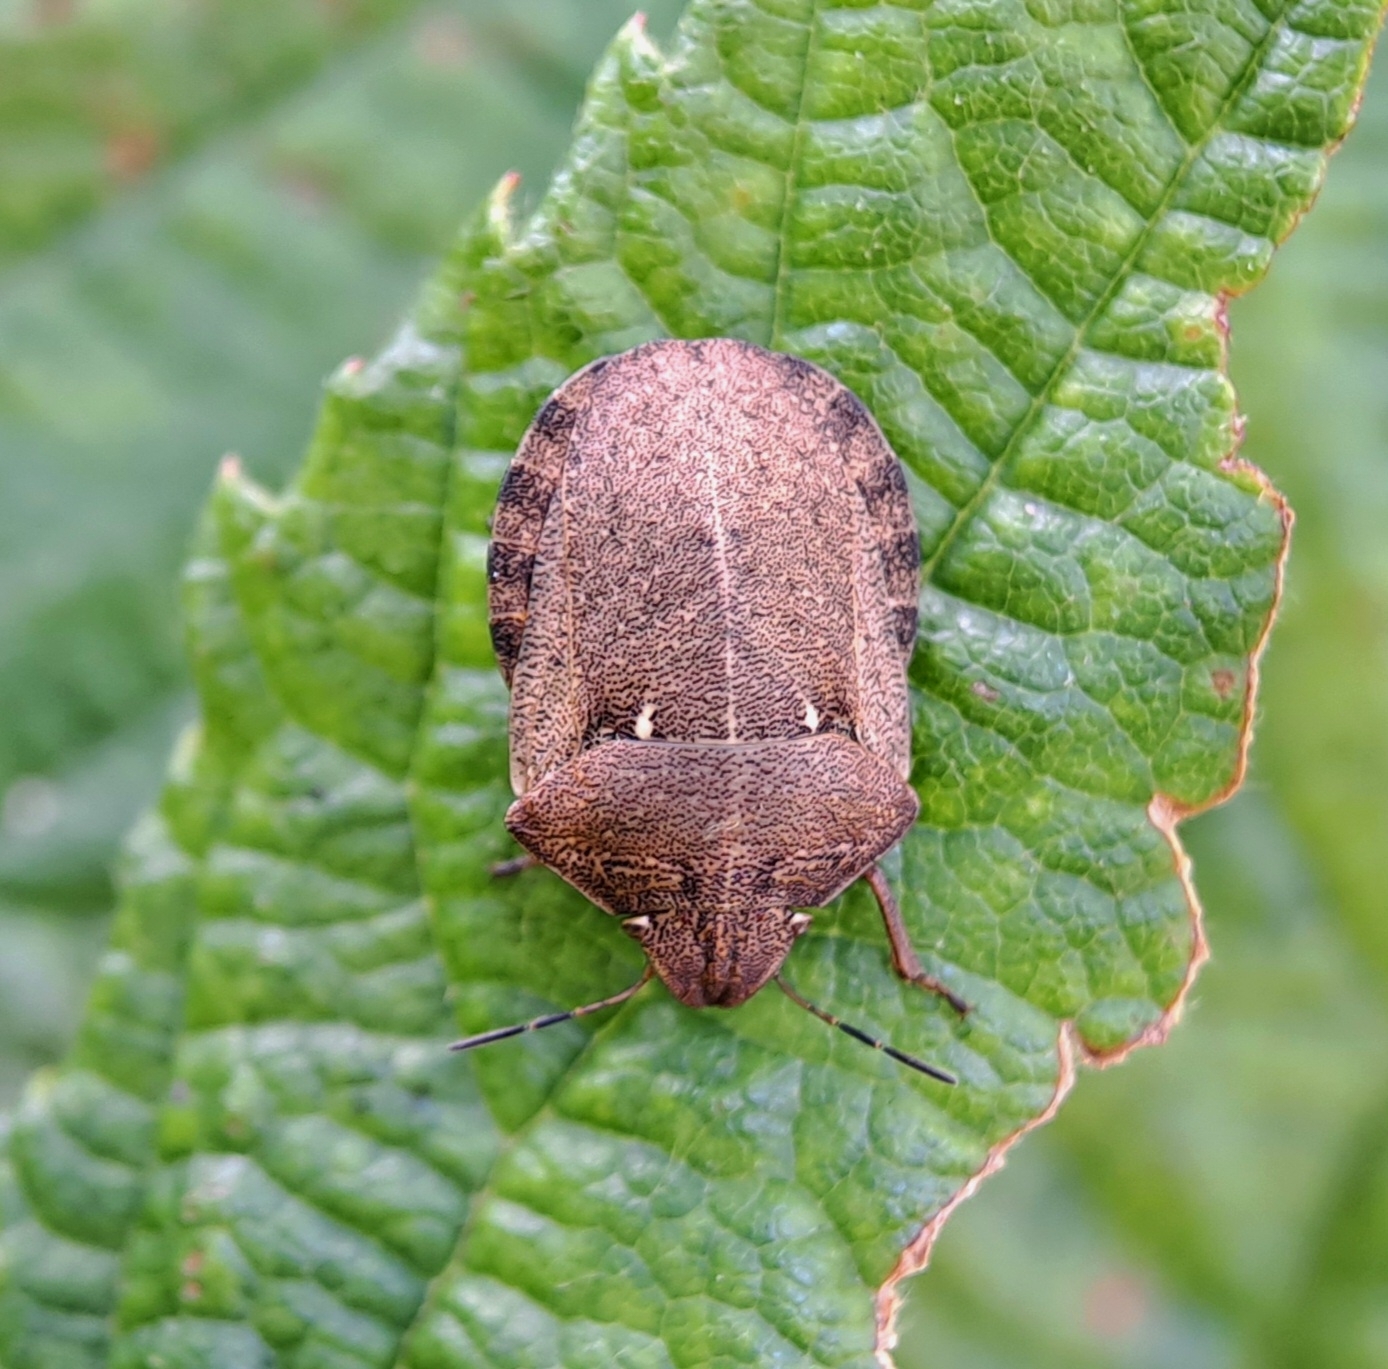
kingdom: Animalia
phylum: Arthropoda
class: Insecta
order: Hemiptera
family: Scutelleridae
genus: Eurygaster
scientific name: Eurygaster testudinaria
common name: Tortoise bug
